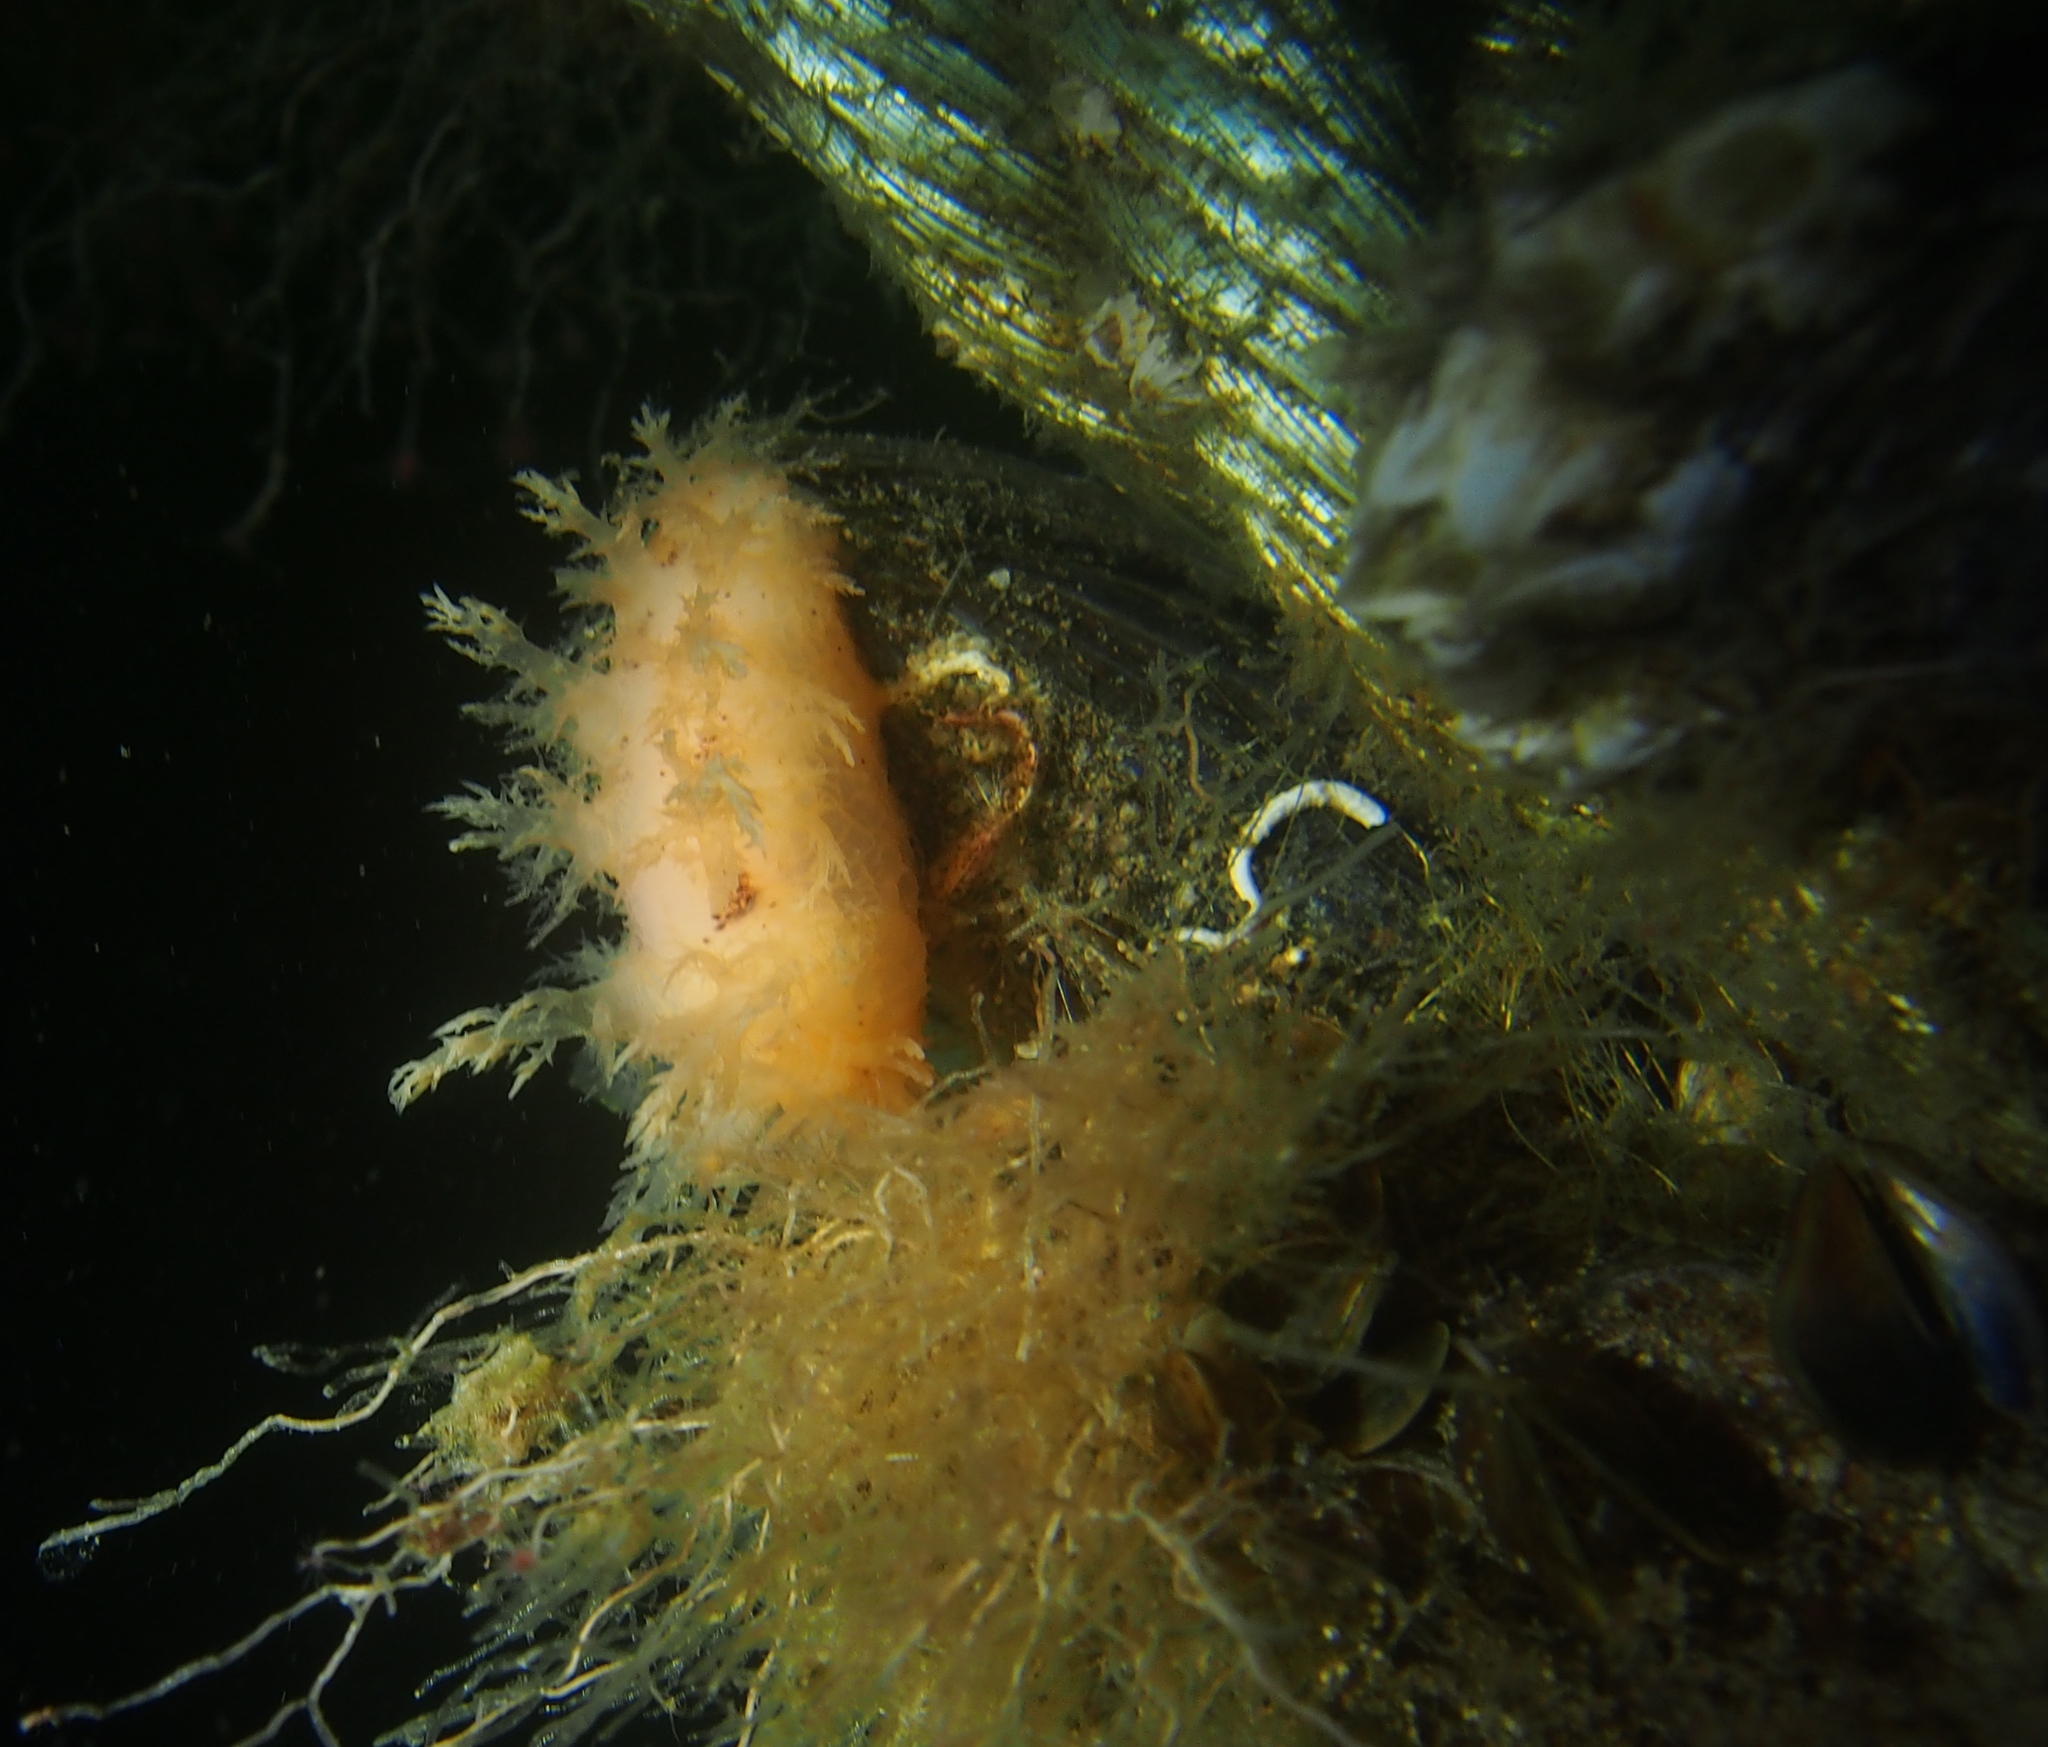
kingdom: Animalia
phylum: Mollusca
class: Gastropoda
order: Nudibranchia
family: Dendronotidae
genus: Dendronotus
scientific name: Dendronotus lacteus
